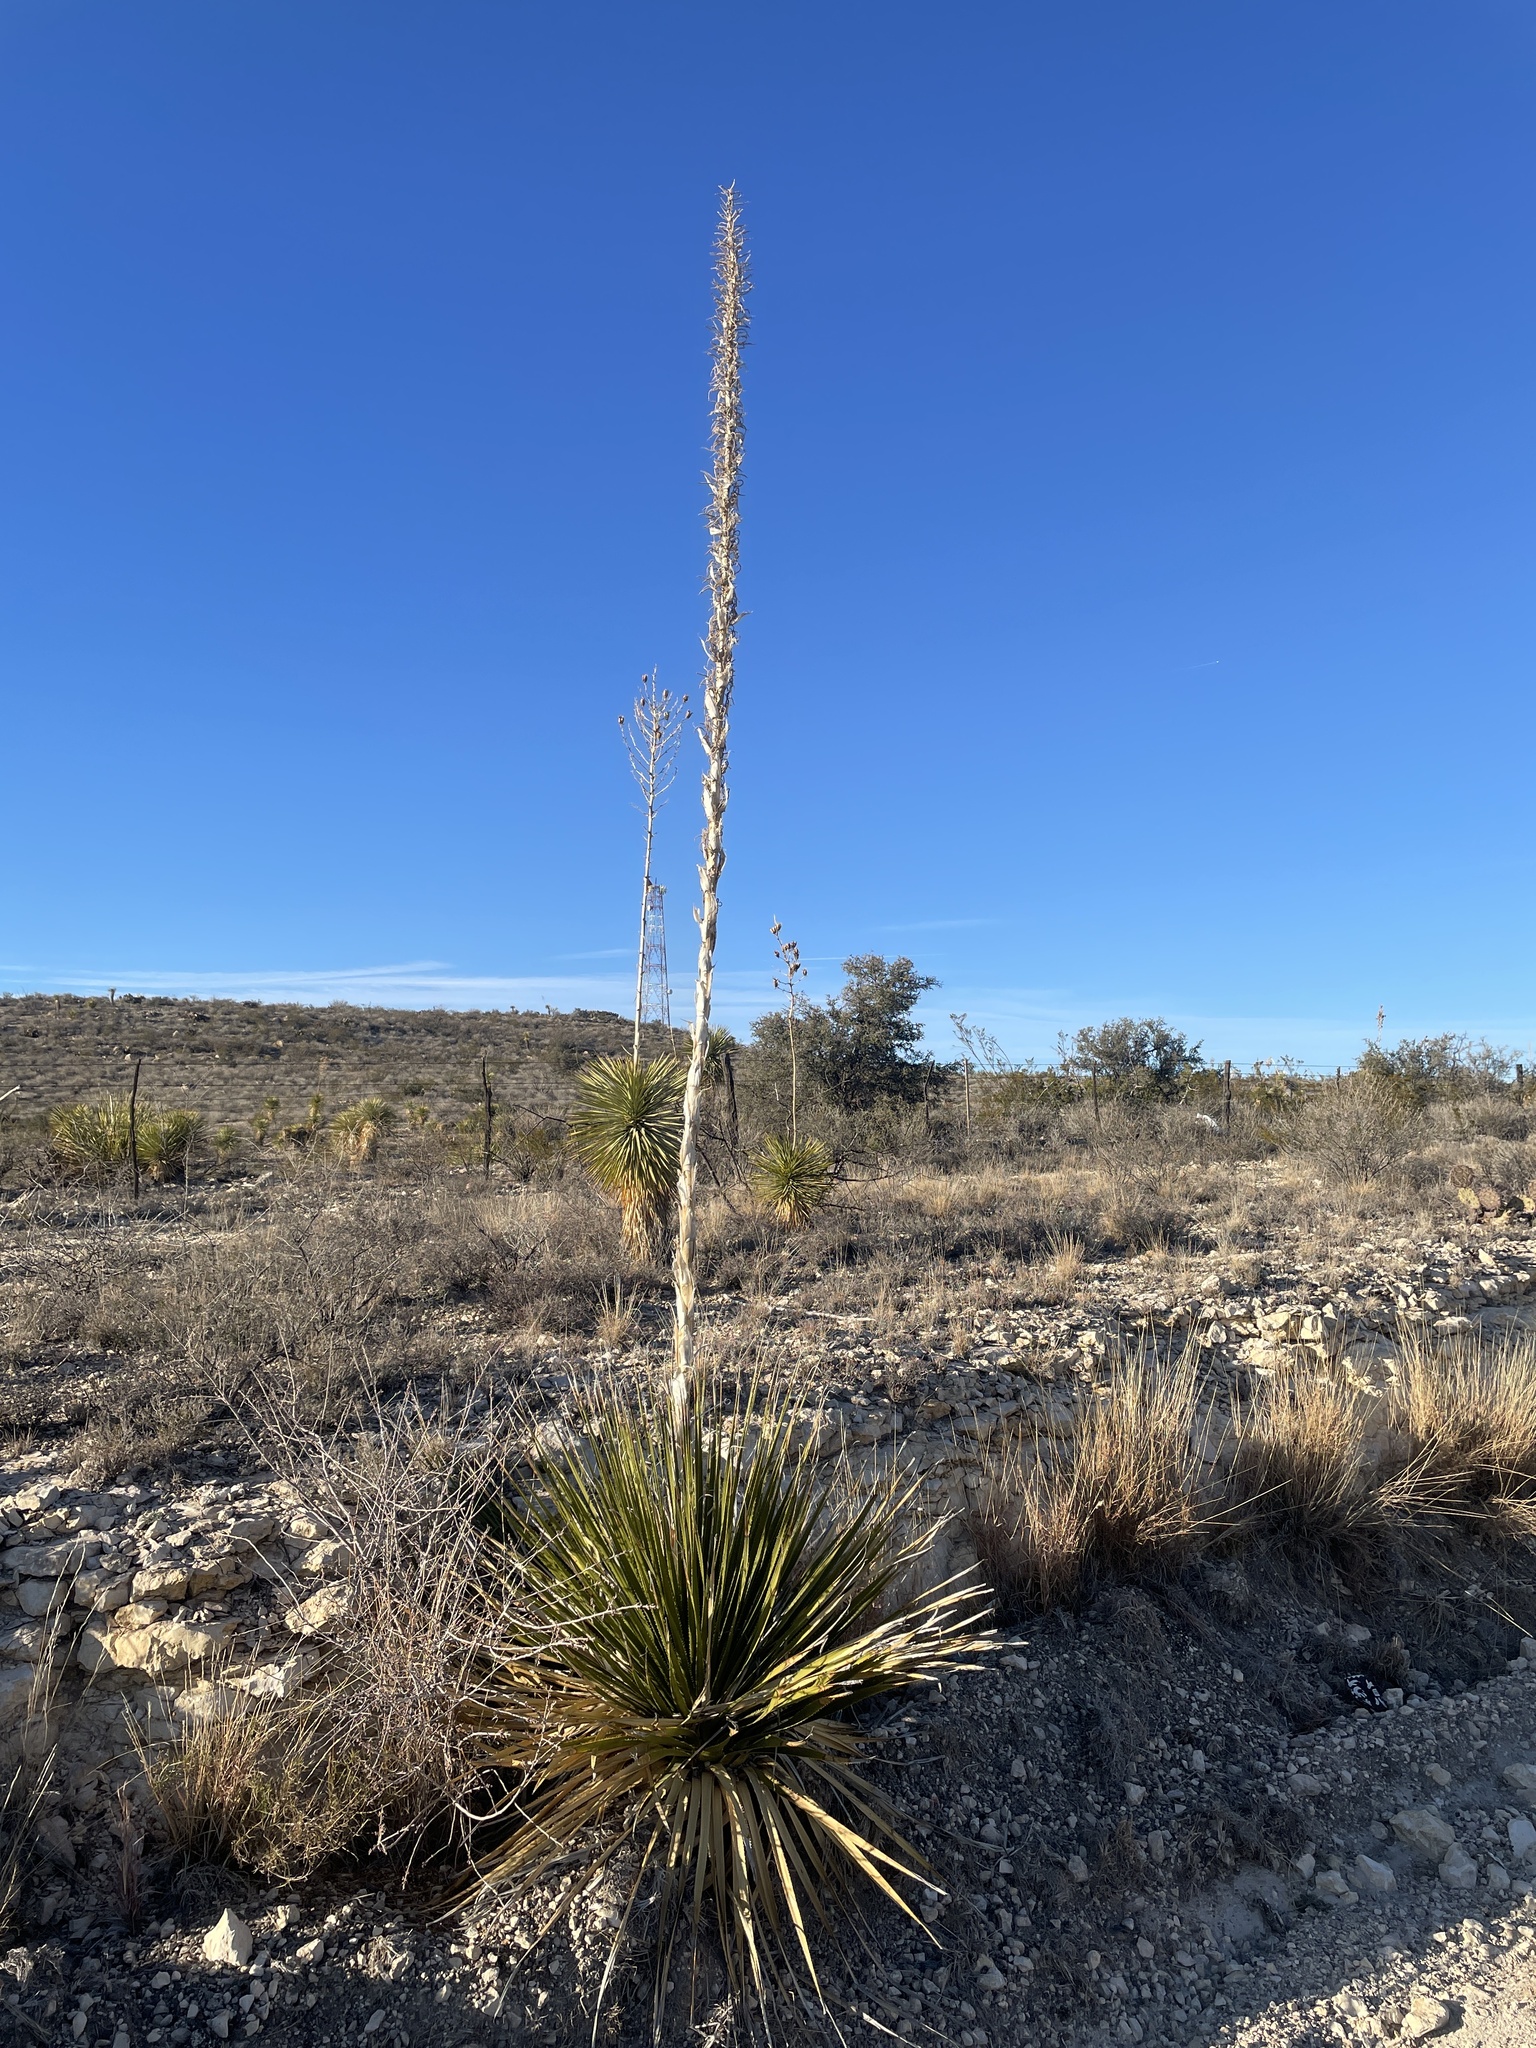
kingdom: Plantae
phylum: Tracheophyta
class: Liliopsida
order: Asparagales
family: Asparagaceae
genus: Dasylirion
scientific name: Dasylirion texanum
